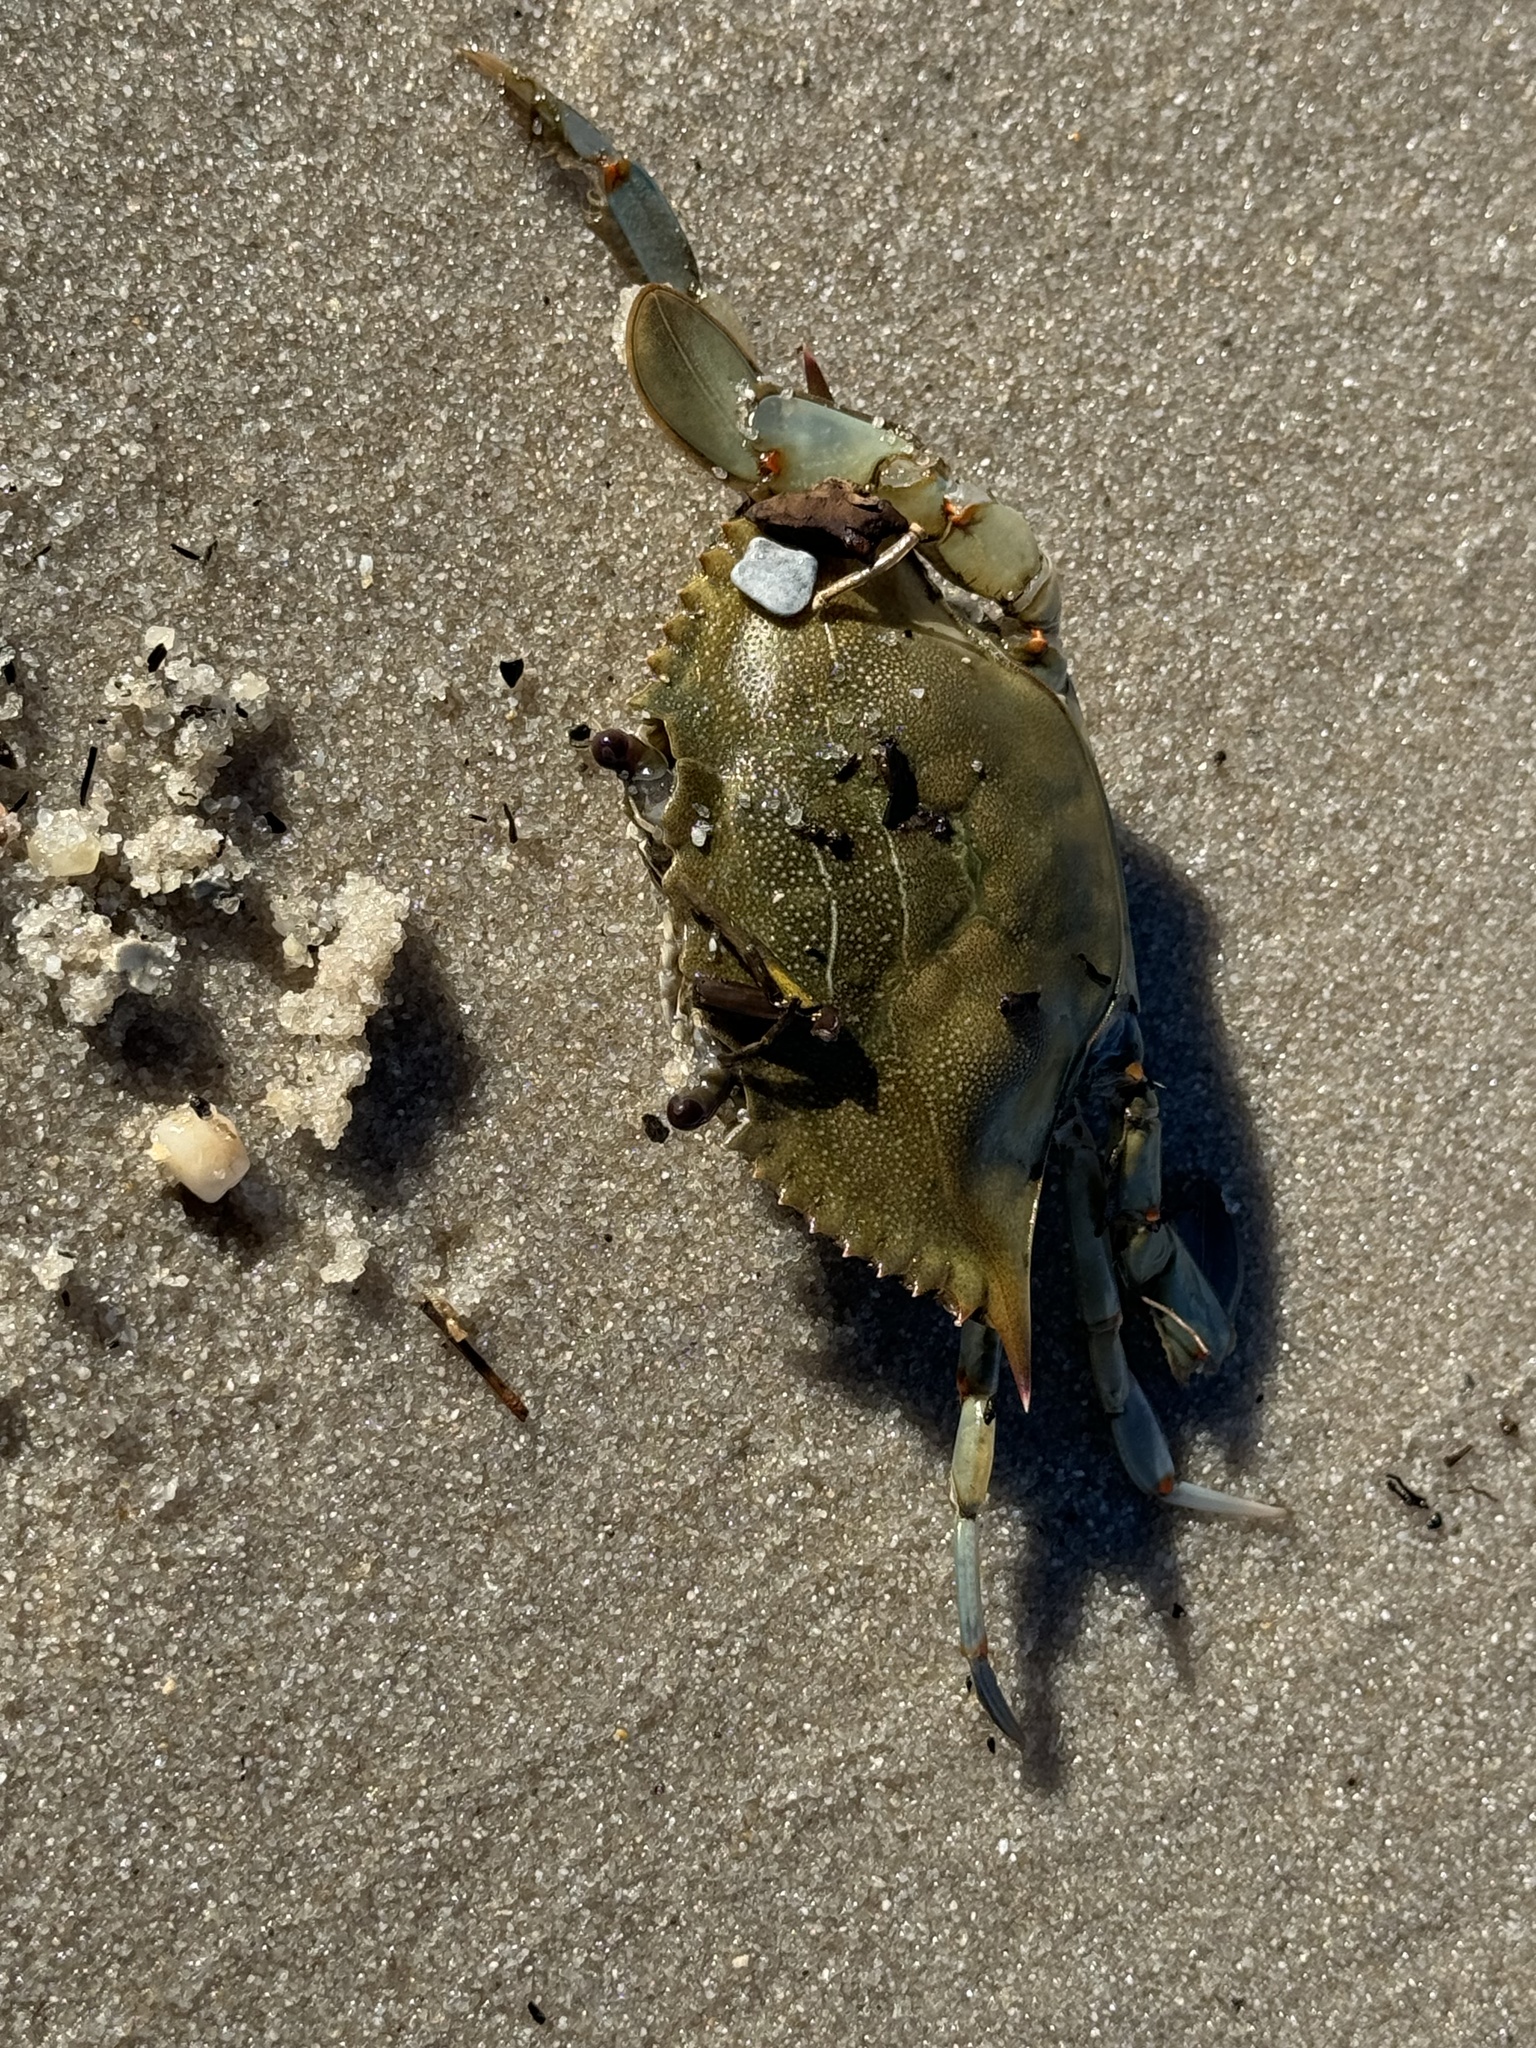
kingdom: Animalia
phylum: Arthropoda
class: Malacostraca
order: Decapoda
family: Portunidae
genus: Callinectes
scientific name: Callinectes sapidus
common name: Blue crab
